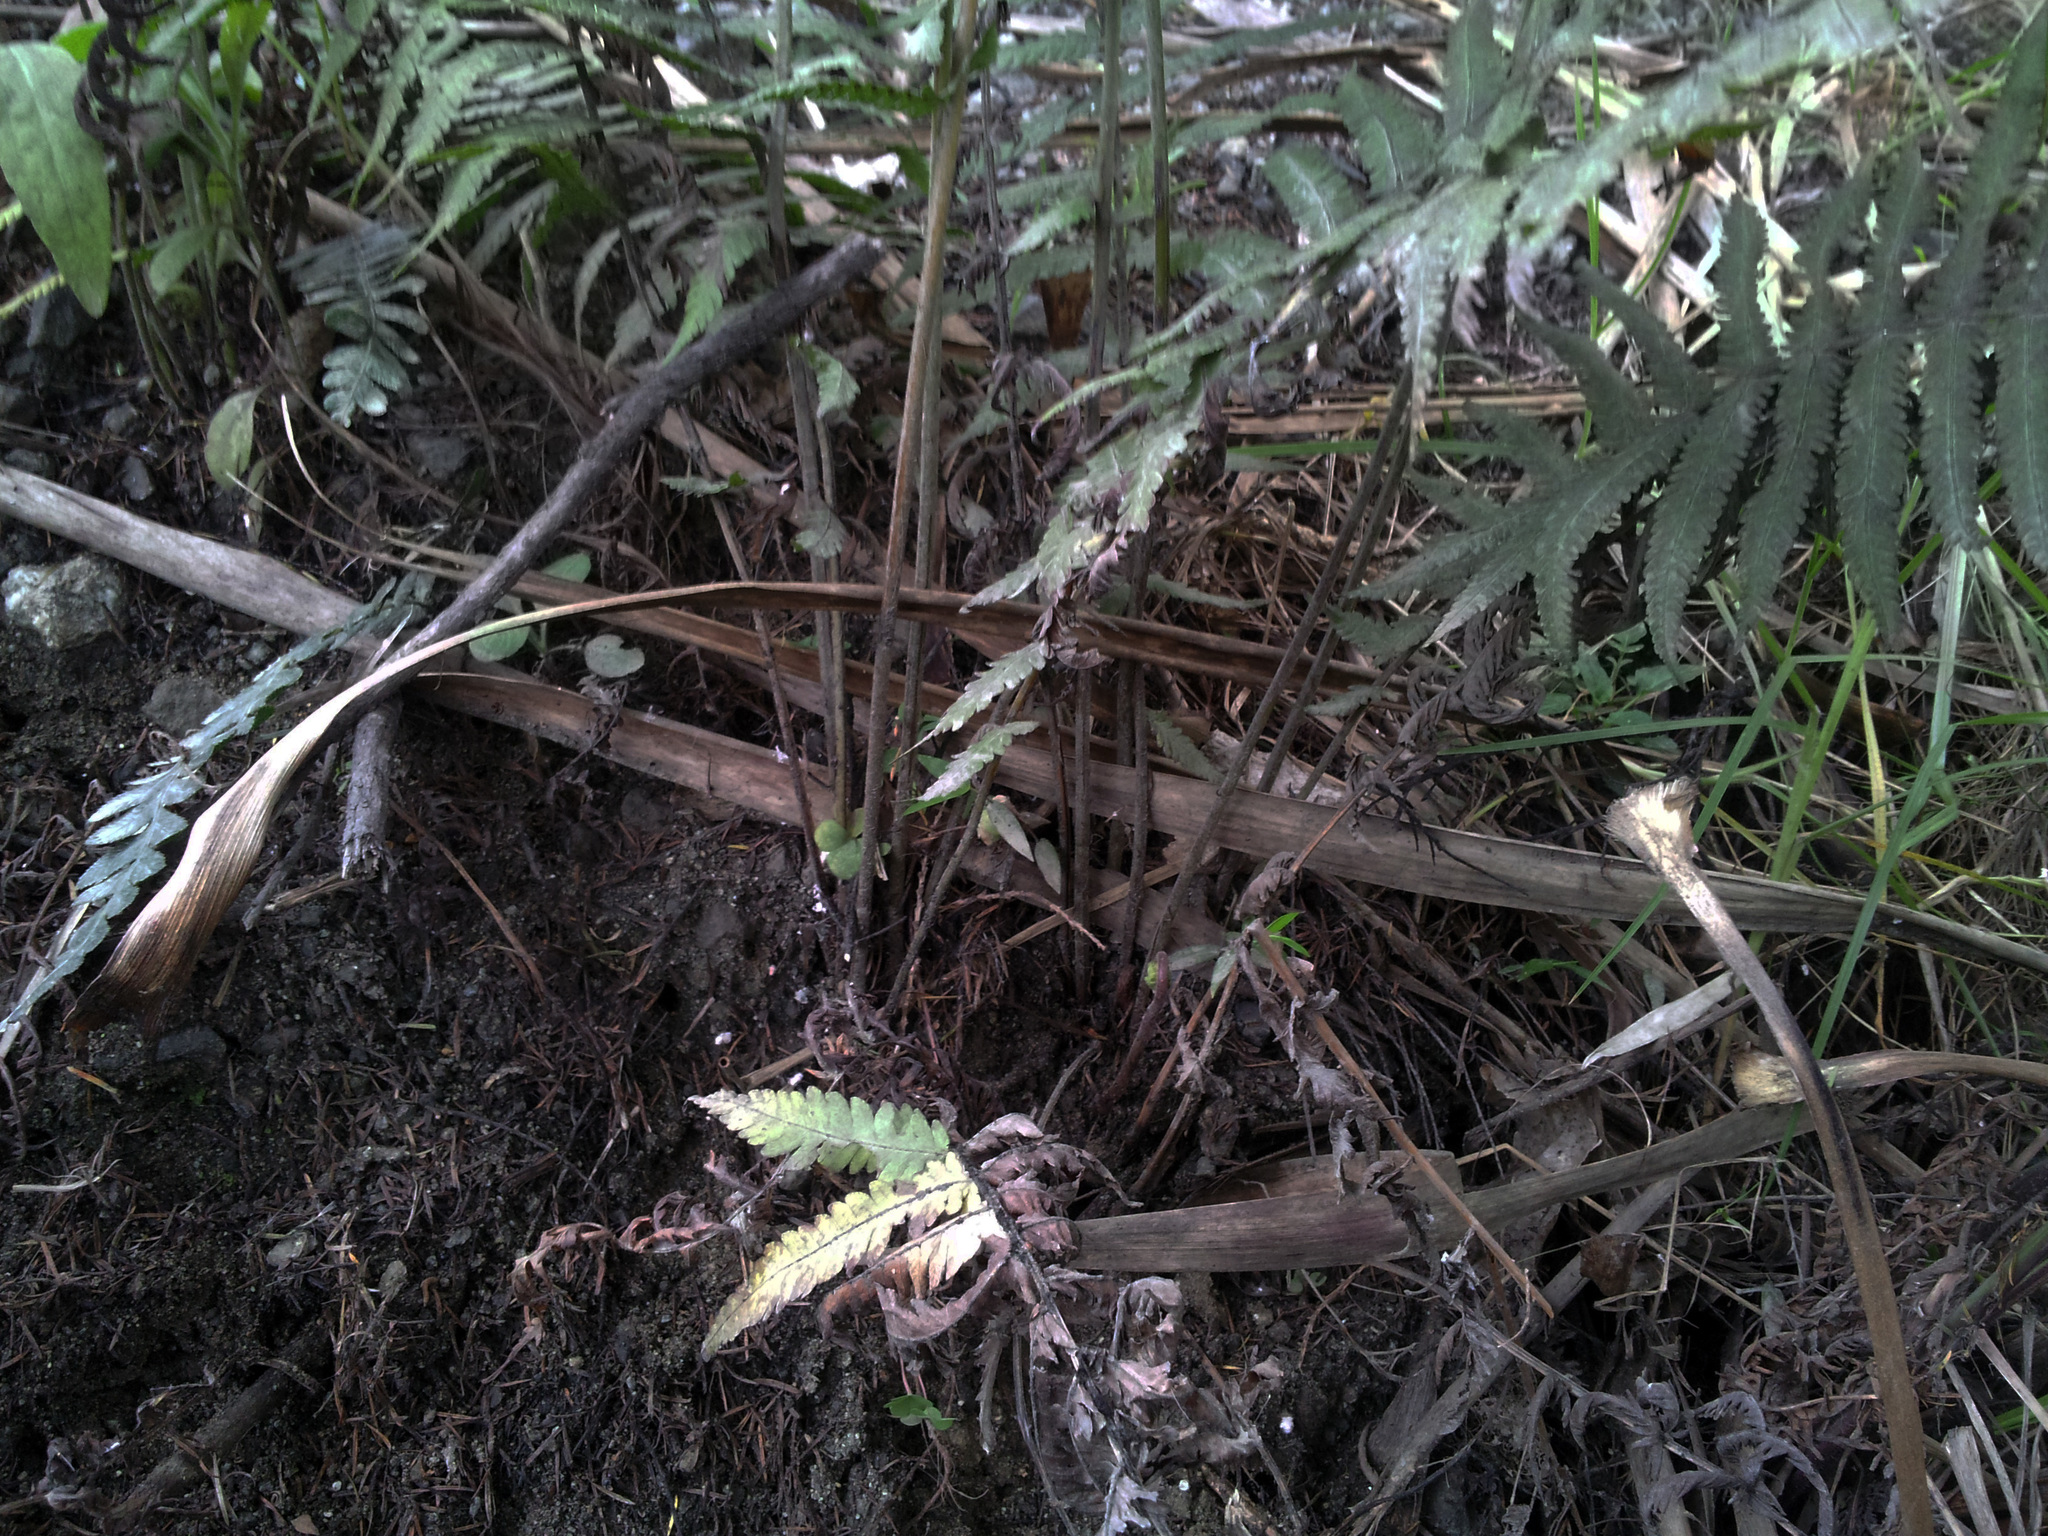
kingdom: Plantae
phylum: Tracheophyta
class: Polypodiopsida
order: Polypodiales
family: Thelypteridaceae
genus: Christella
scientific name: Christella dentata
